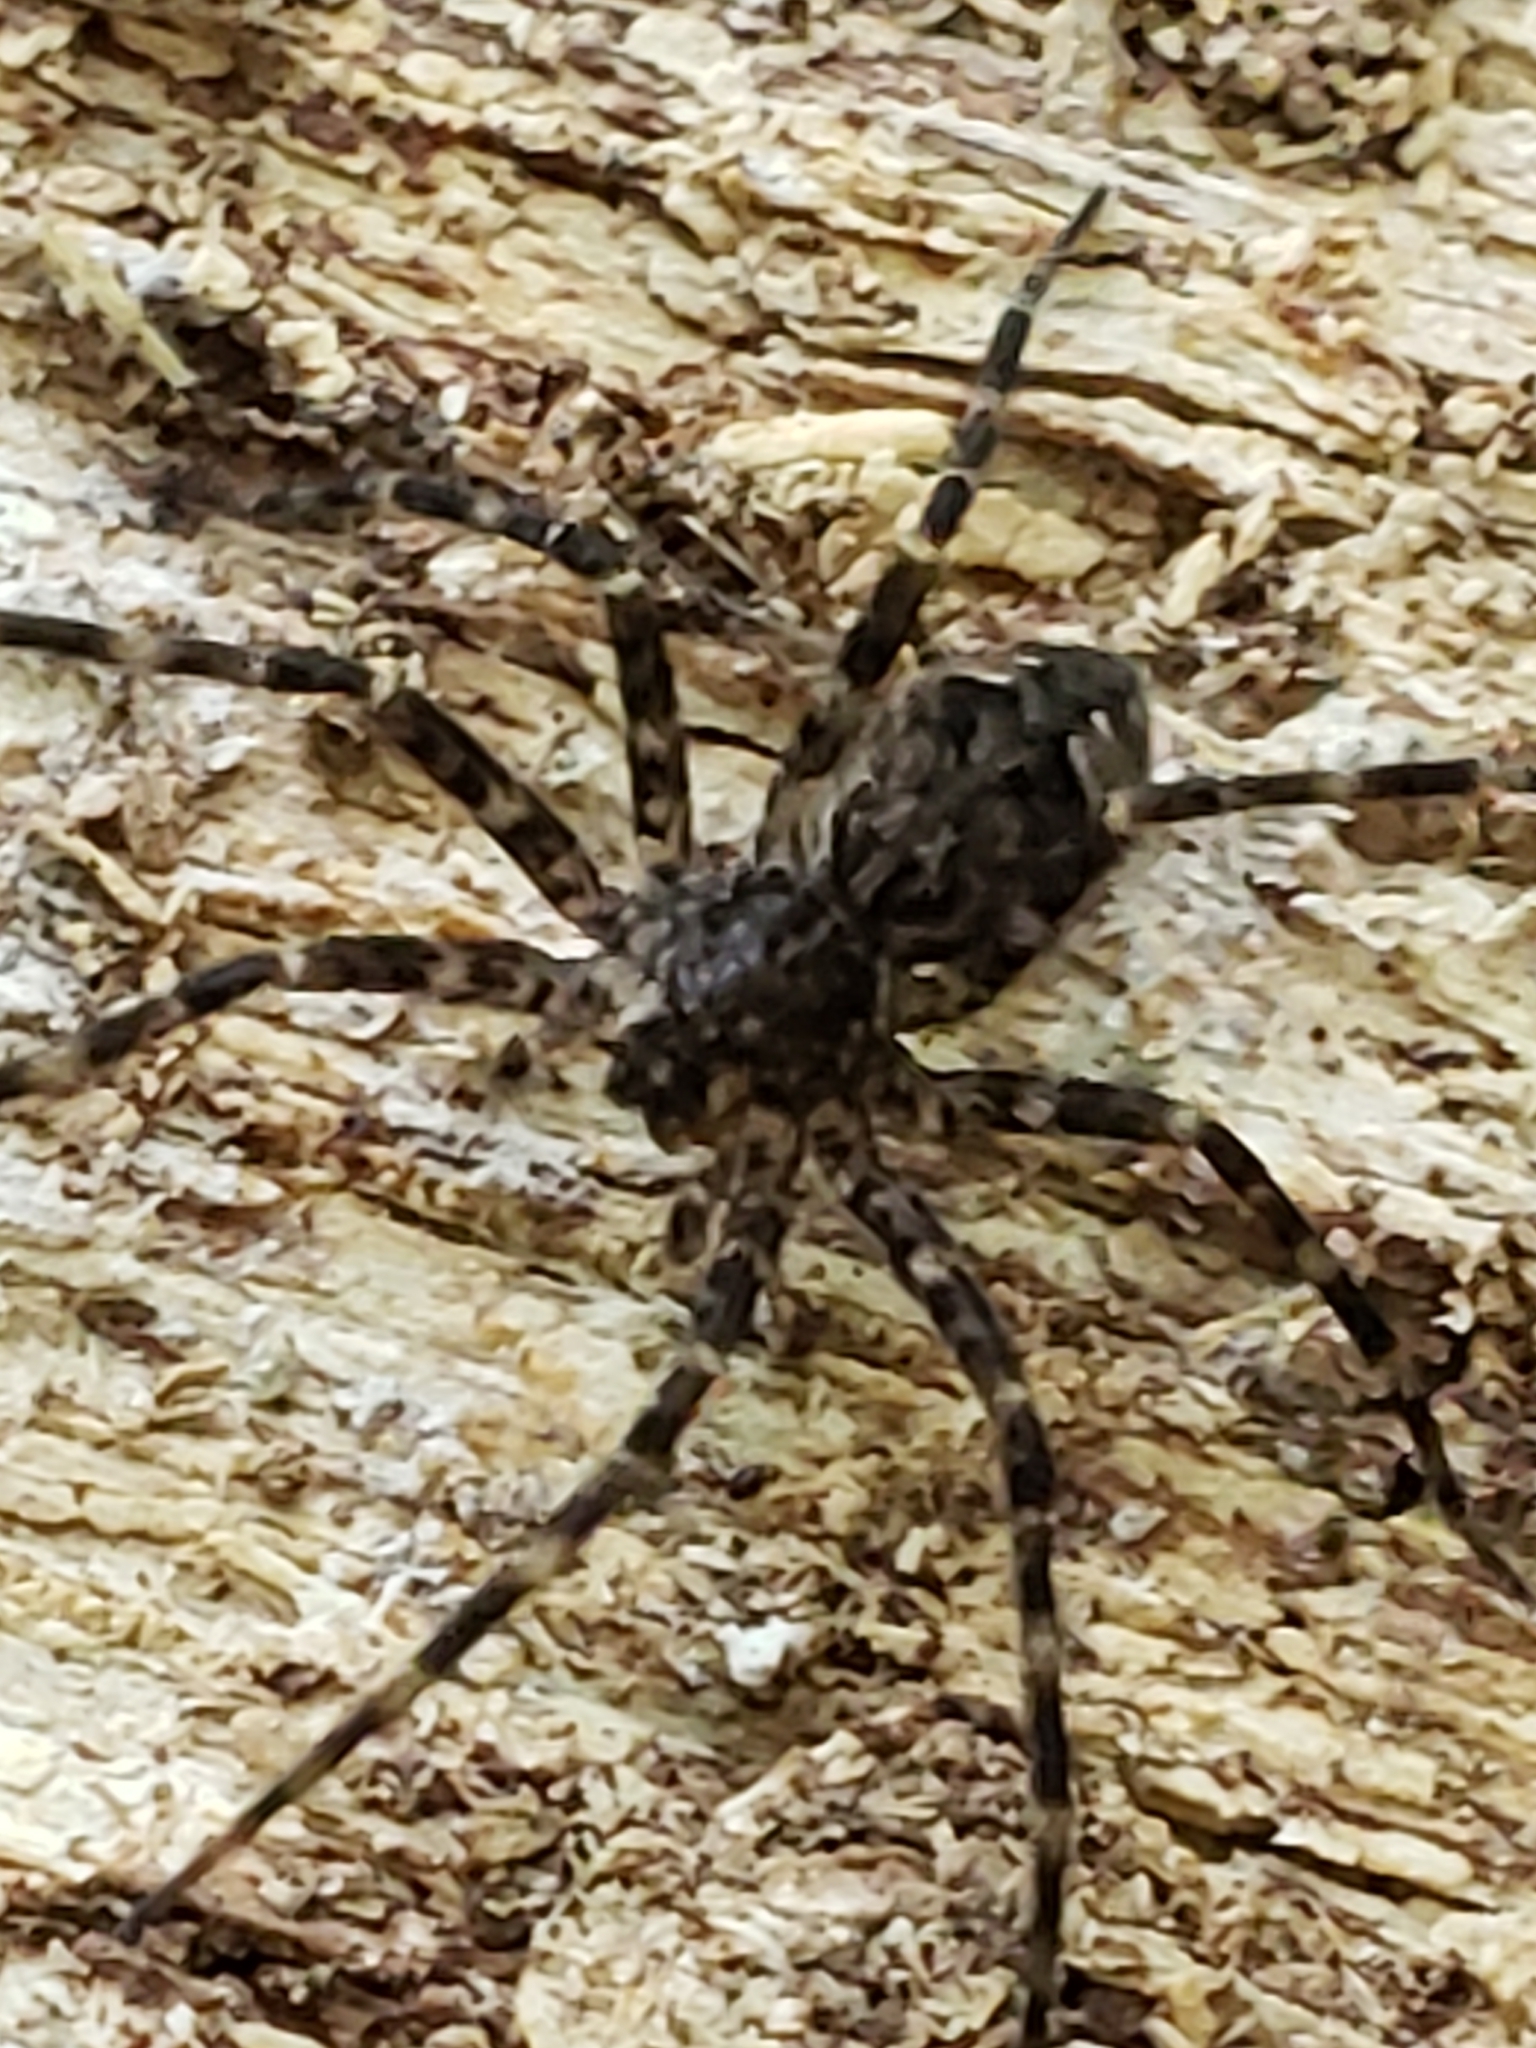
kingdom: Animalia
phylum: Arthropoda
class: Arachnida
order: Araneae
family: Pisauridae
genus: Dolomedes
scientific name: Dolomedes tenebrosus
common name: Dark fishing spider
